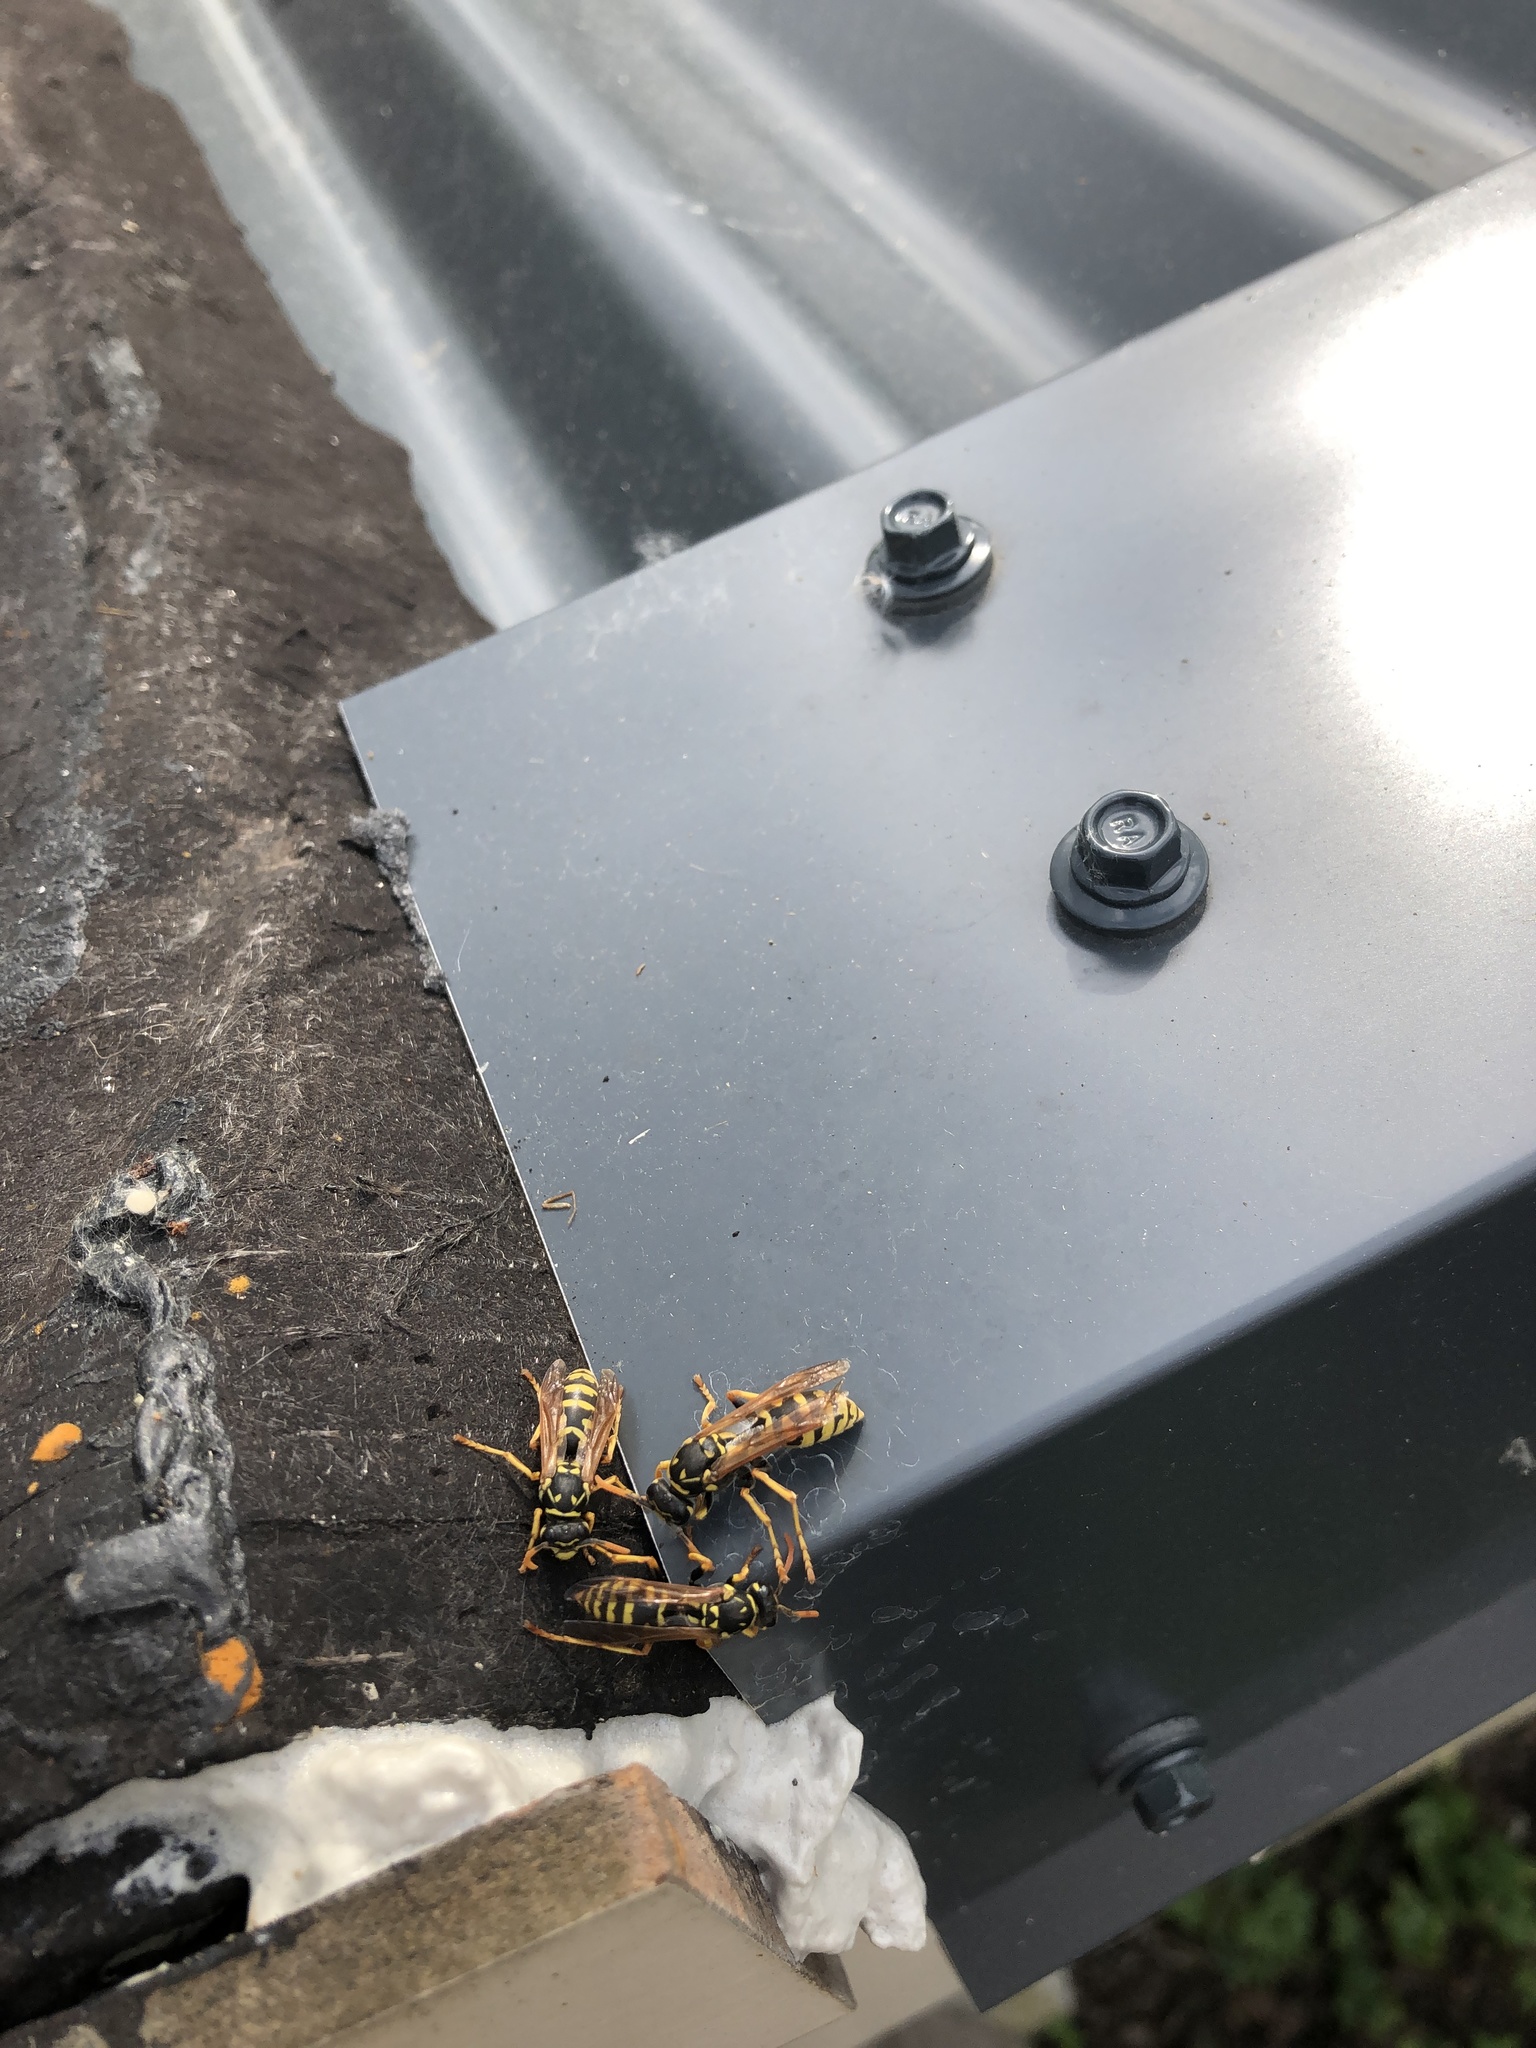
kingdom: Animalia
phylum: Arthropoda
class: Insecta
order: Hymenoptera
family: Eumenidae
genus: Polistes
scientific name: Polistes dominula
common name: Paper wasp
